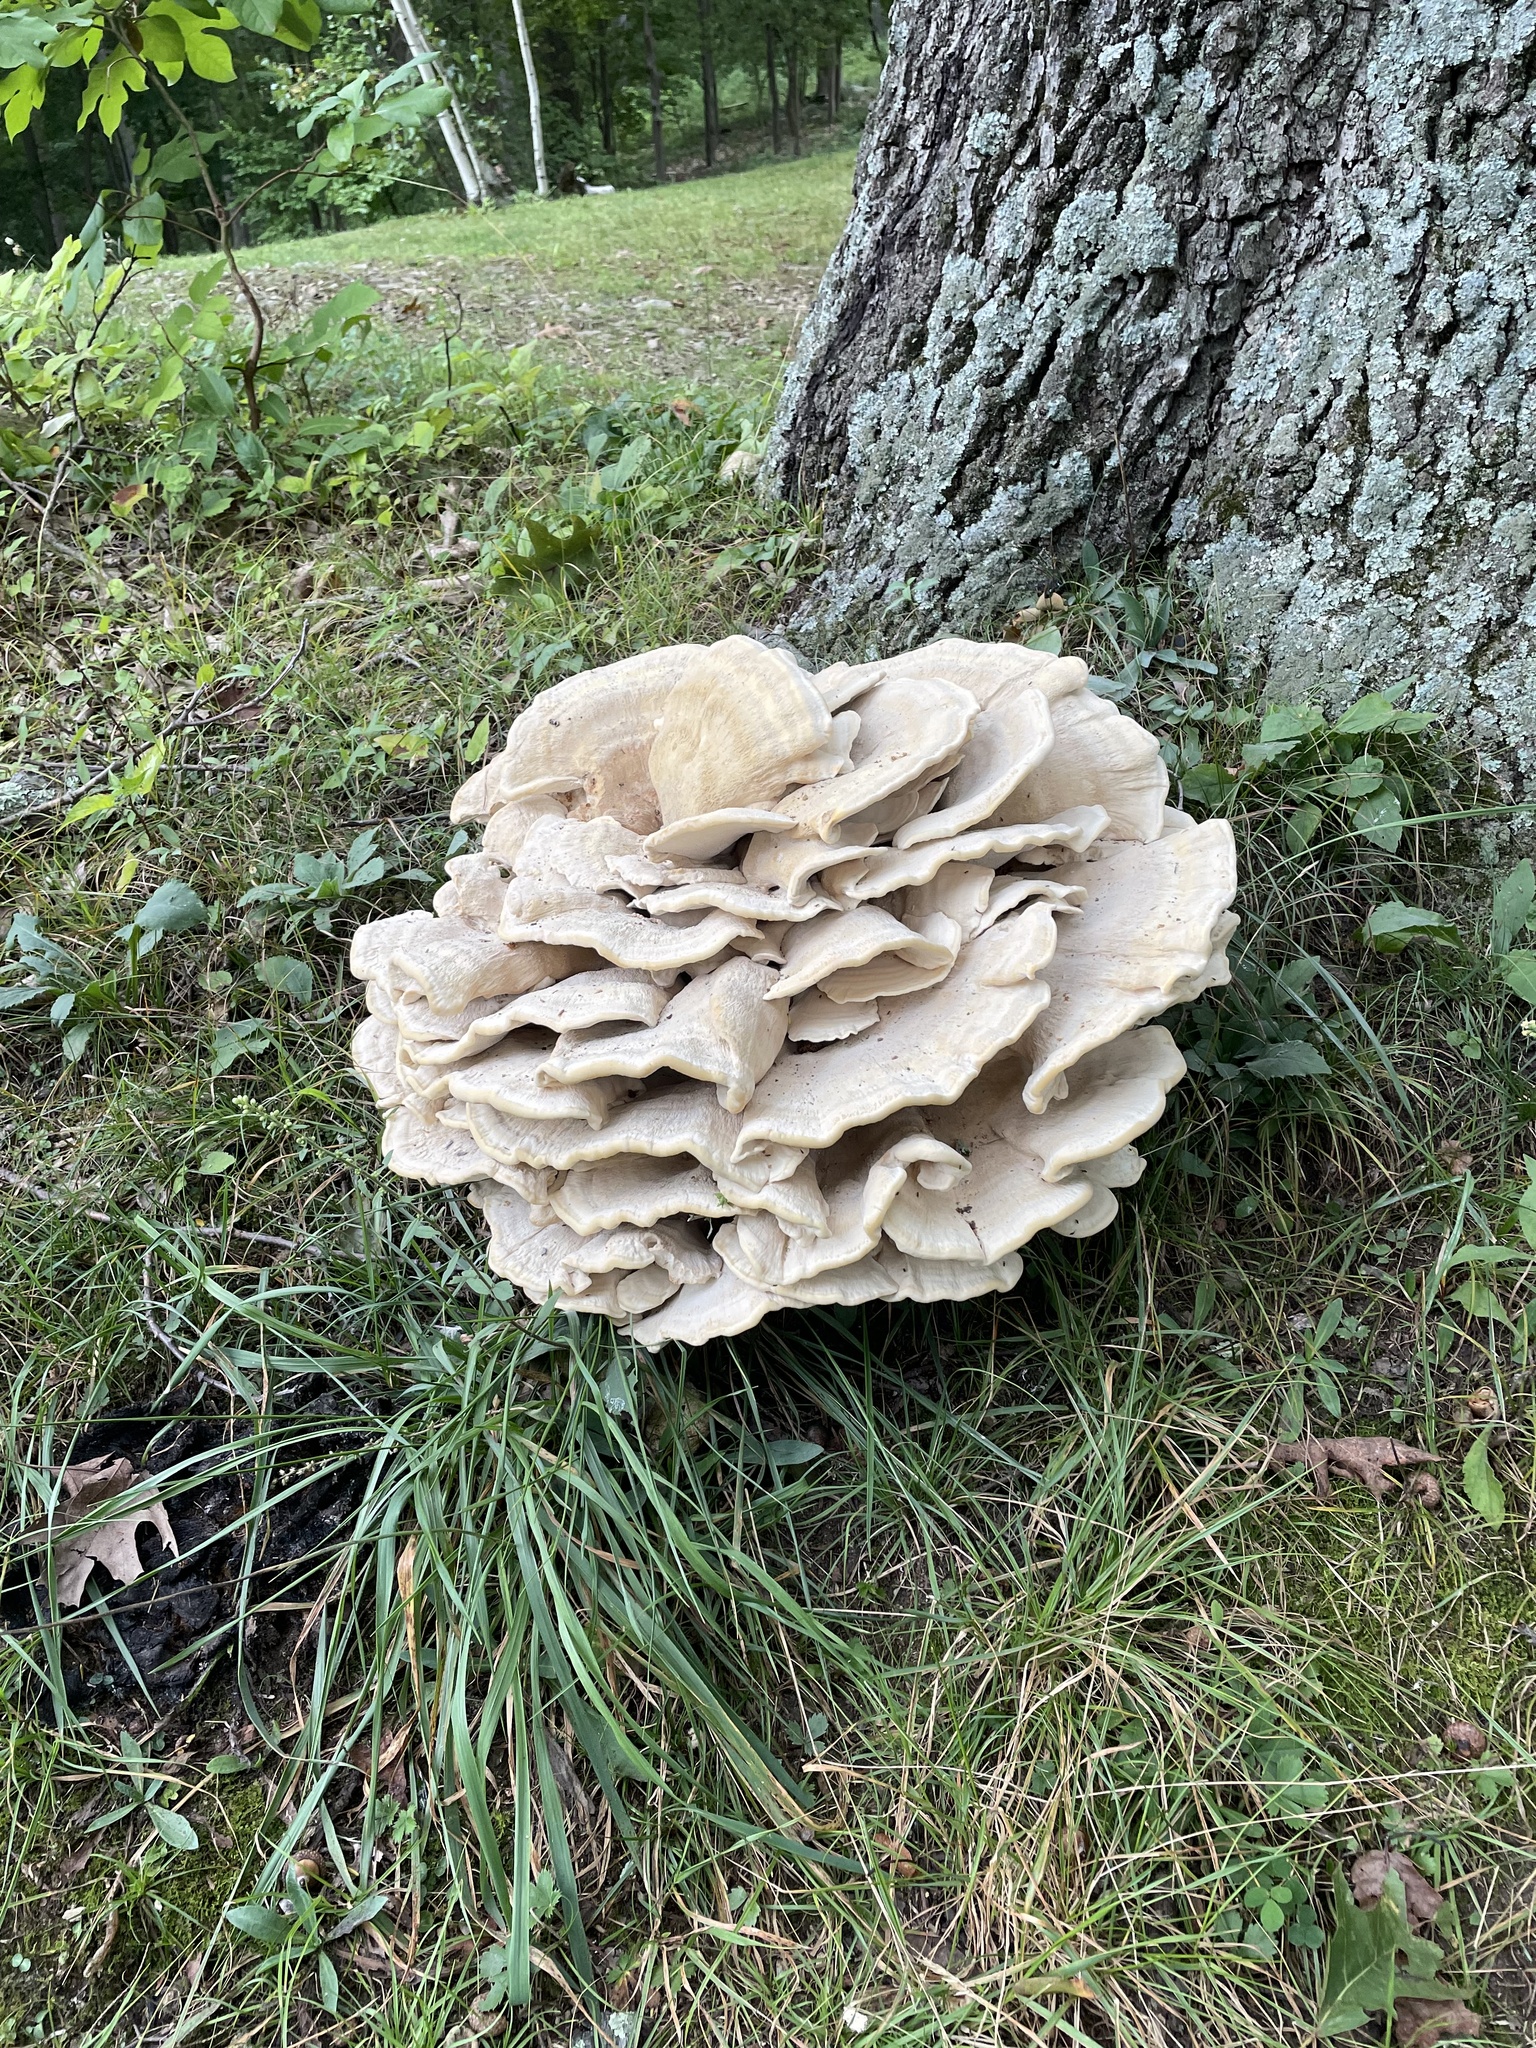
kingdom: Fungi
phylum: Basidiomycota
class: Agaricomycetes
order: Russulales
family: Bondarzewiaceae
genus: Bondarzewia
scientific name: Bondarzewia berkeleyi
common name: Berkeley's polypore
